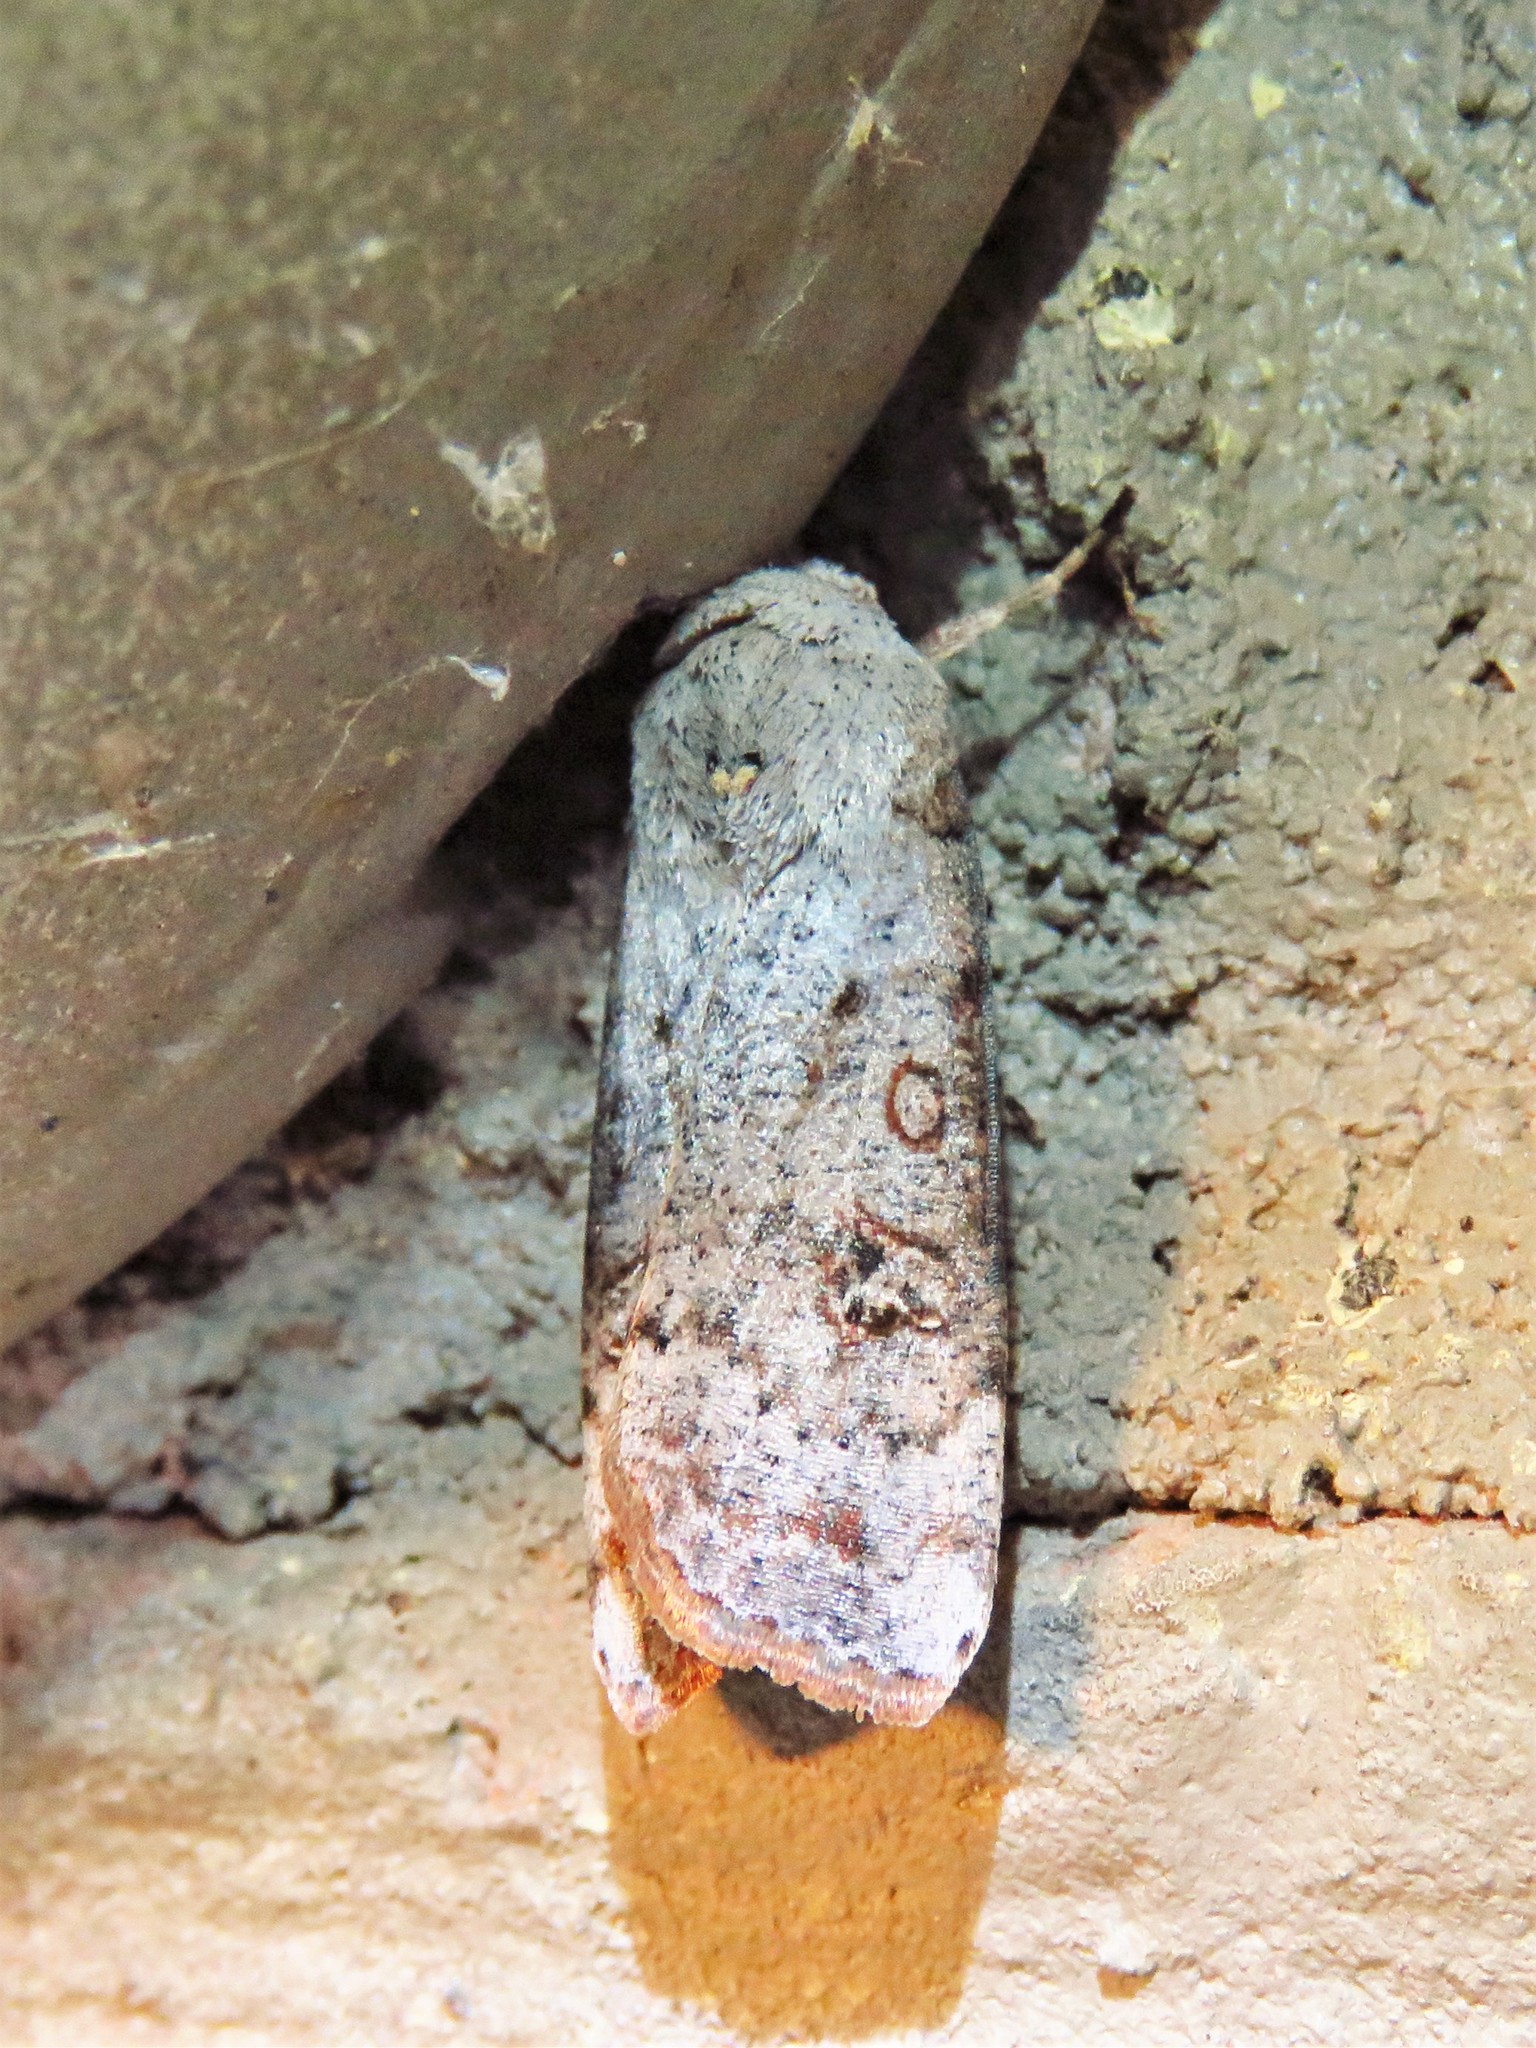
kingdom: Animalia
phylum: Arthropoda
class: Insecta
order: Lepidoptera
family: Noctuidae
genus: Anicla
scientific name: Anicla infecta
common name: Green cutworm
